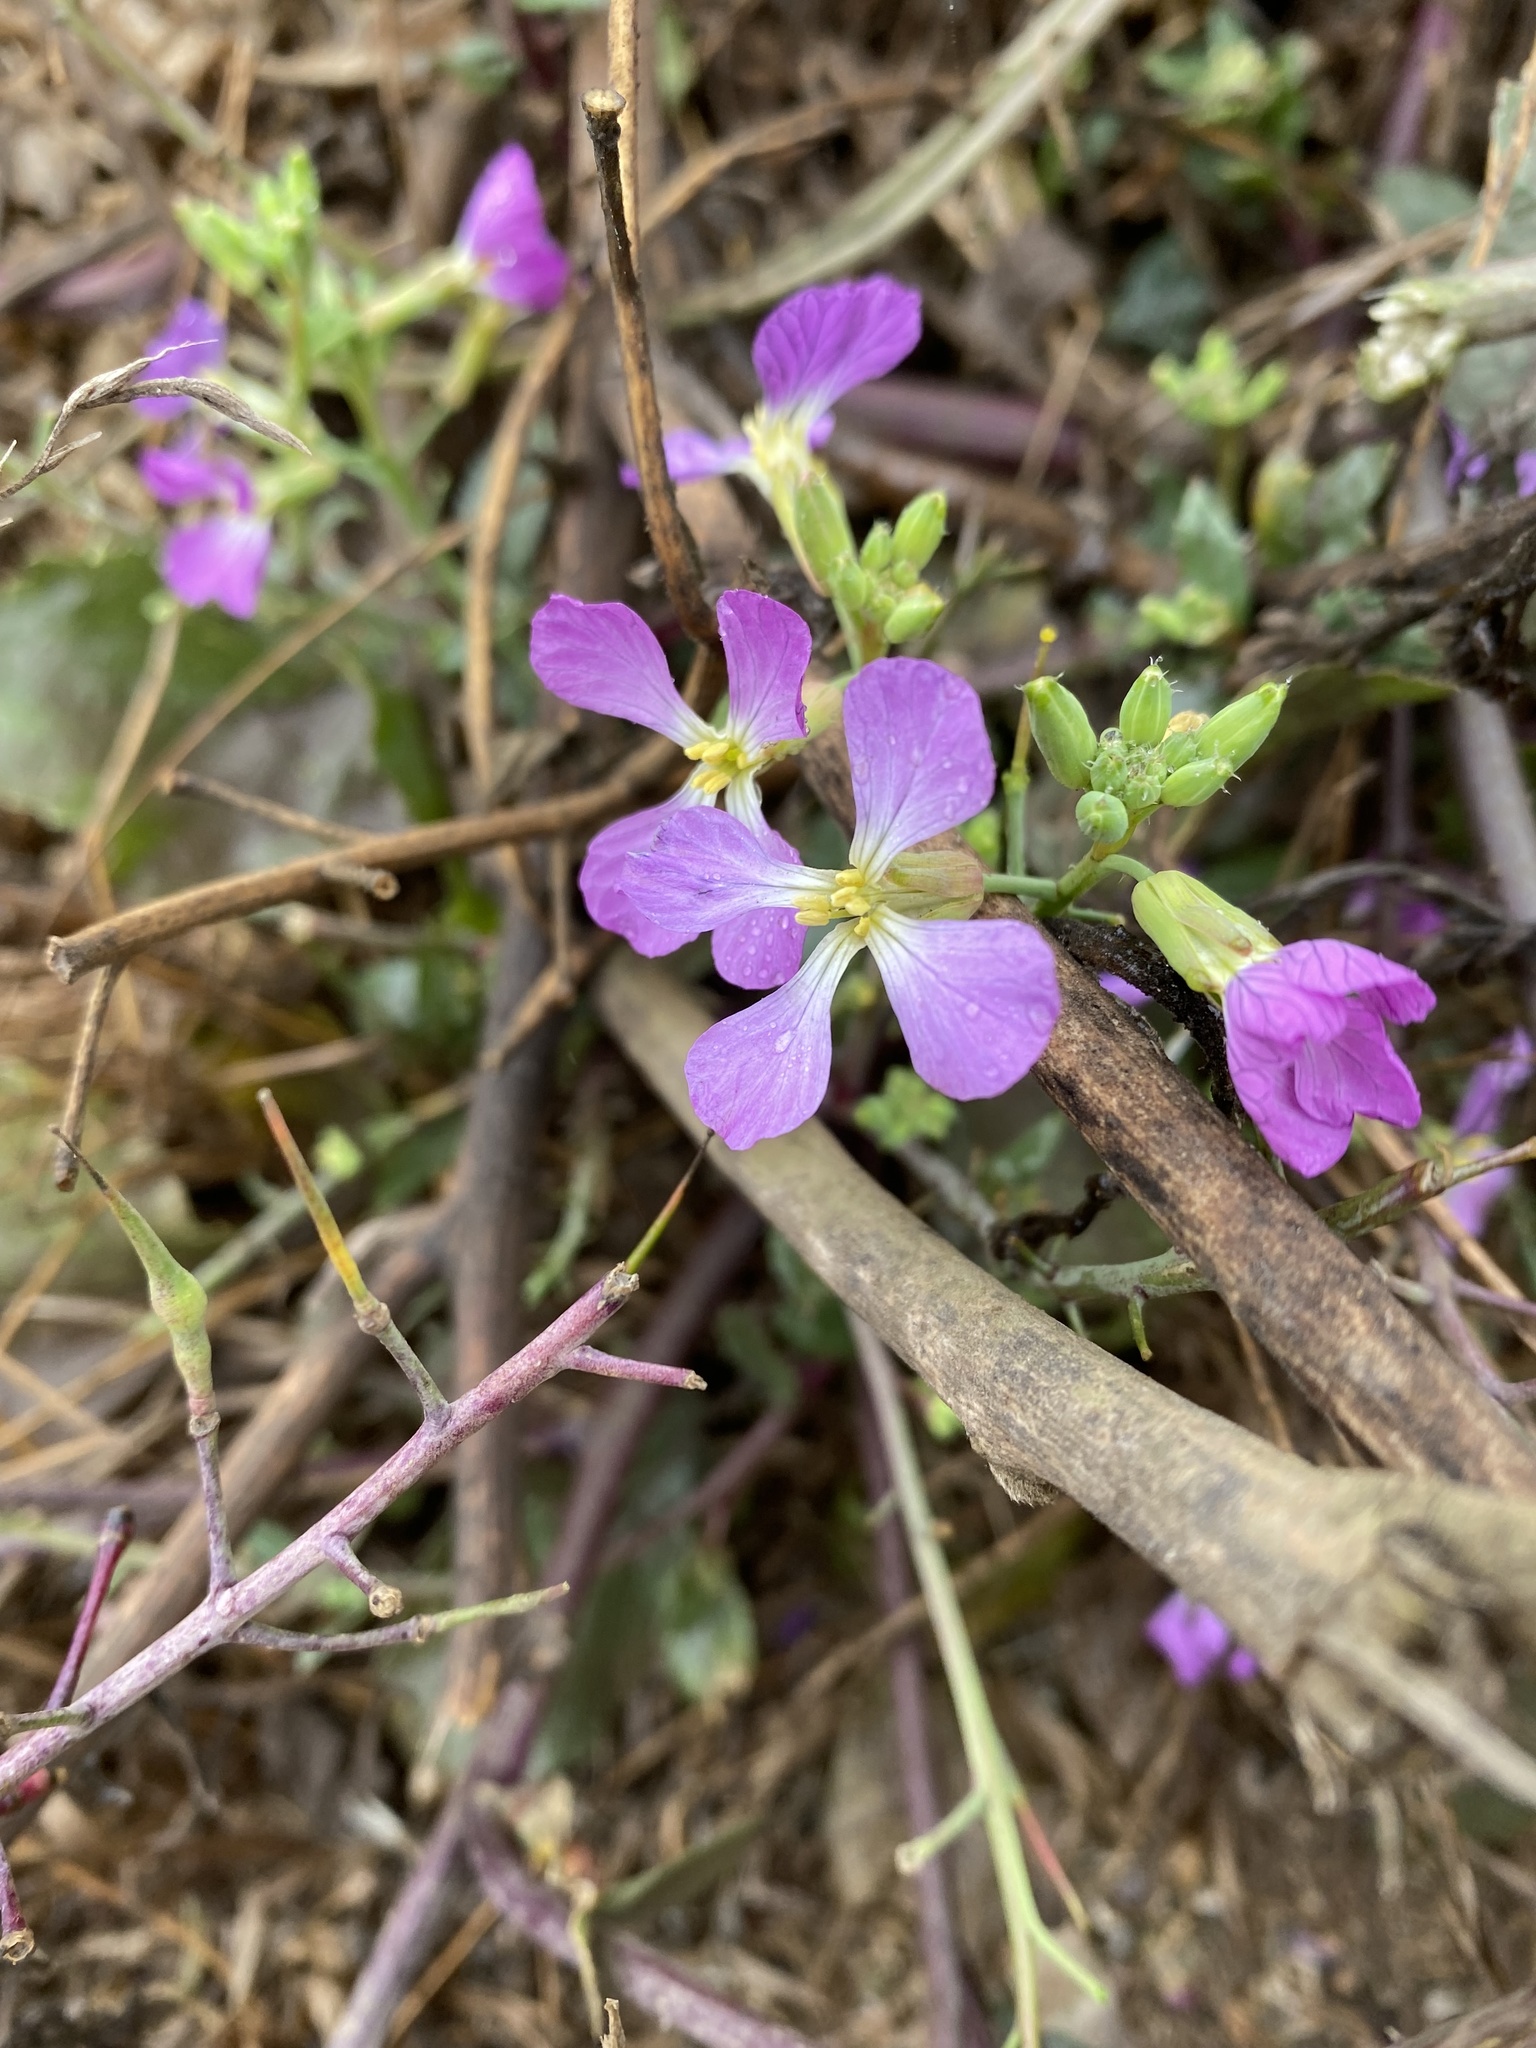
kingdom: Plantae
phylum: Tracheophyta
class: Magnoliopsida
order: Brassicales
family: Brassicaceae
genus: Raphanus
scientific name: Raphanus sativus
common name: Cultivated radish
